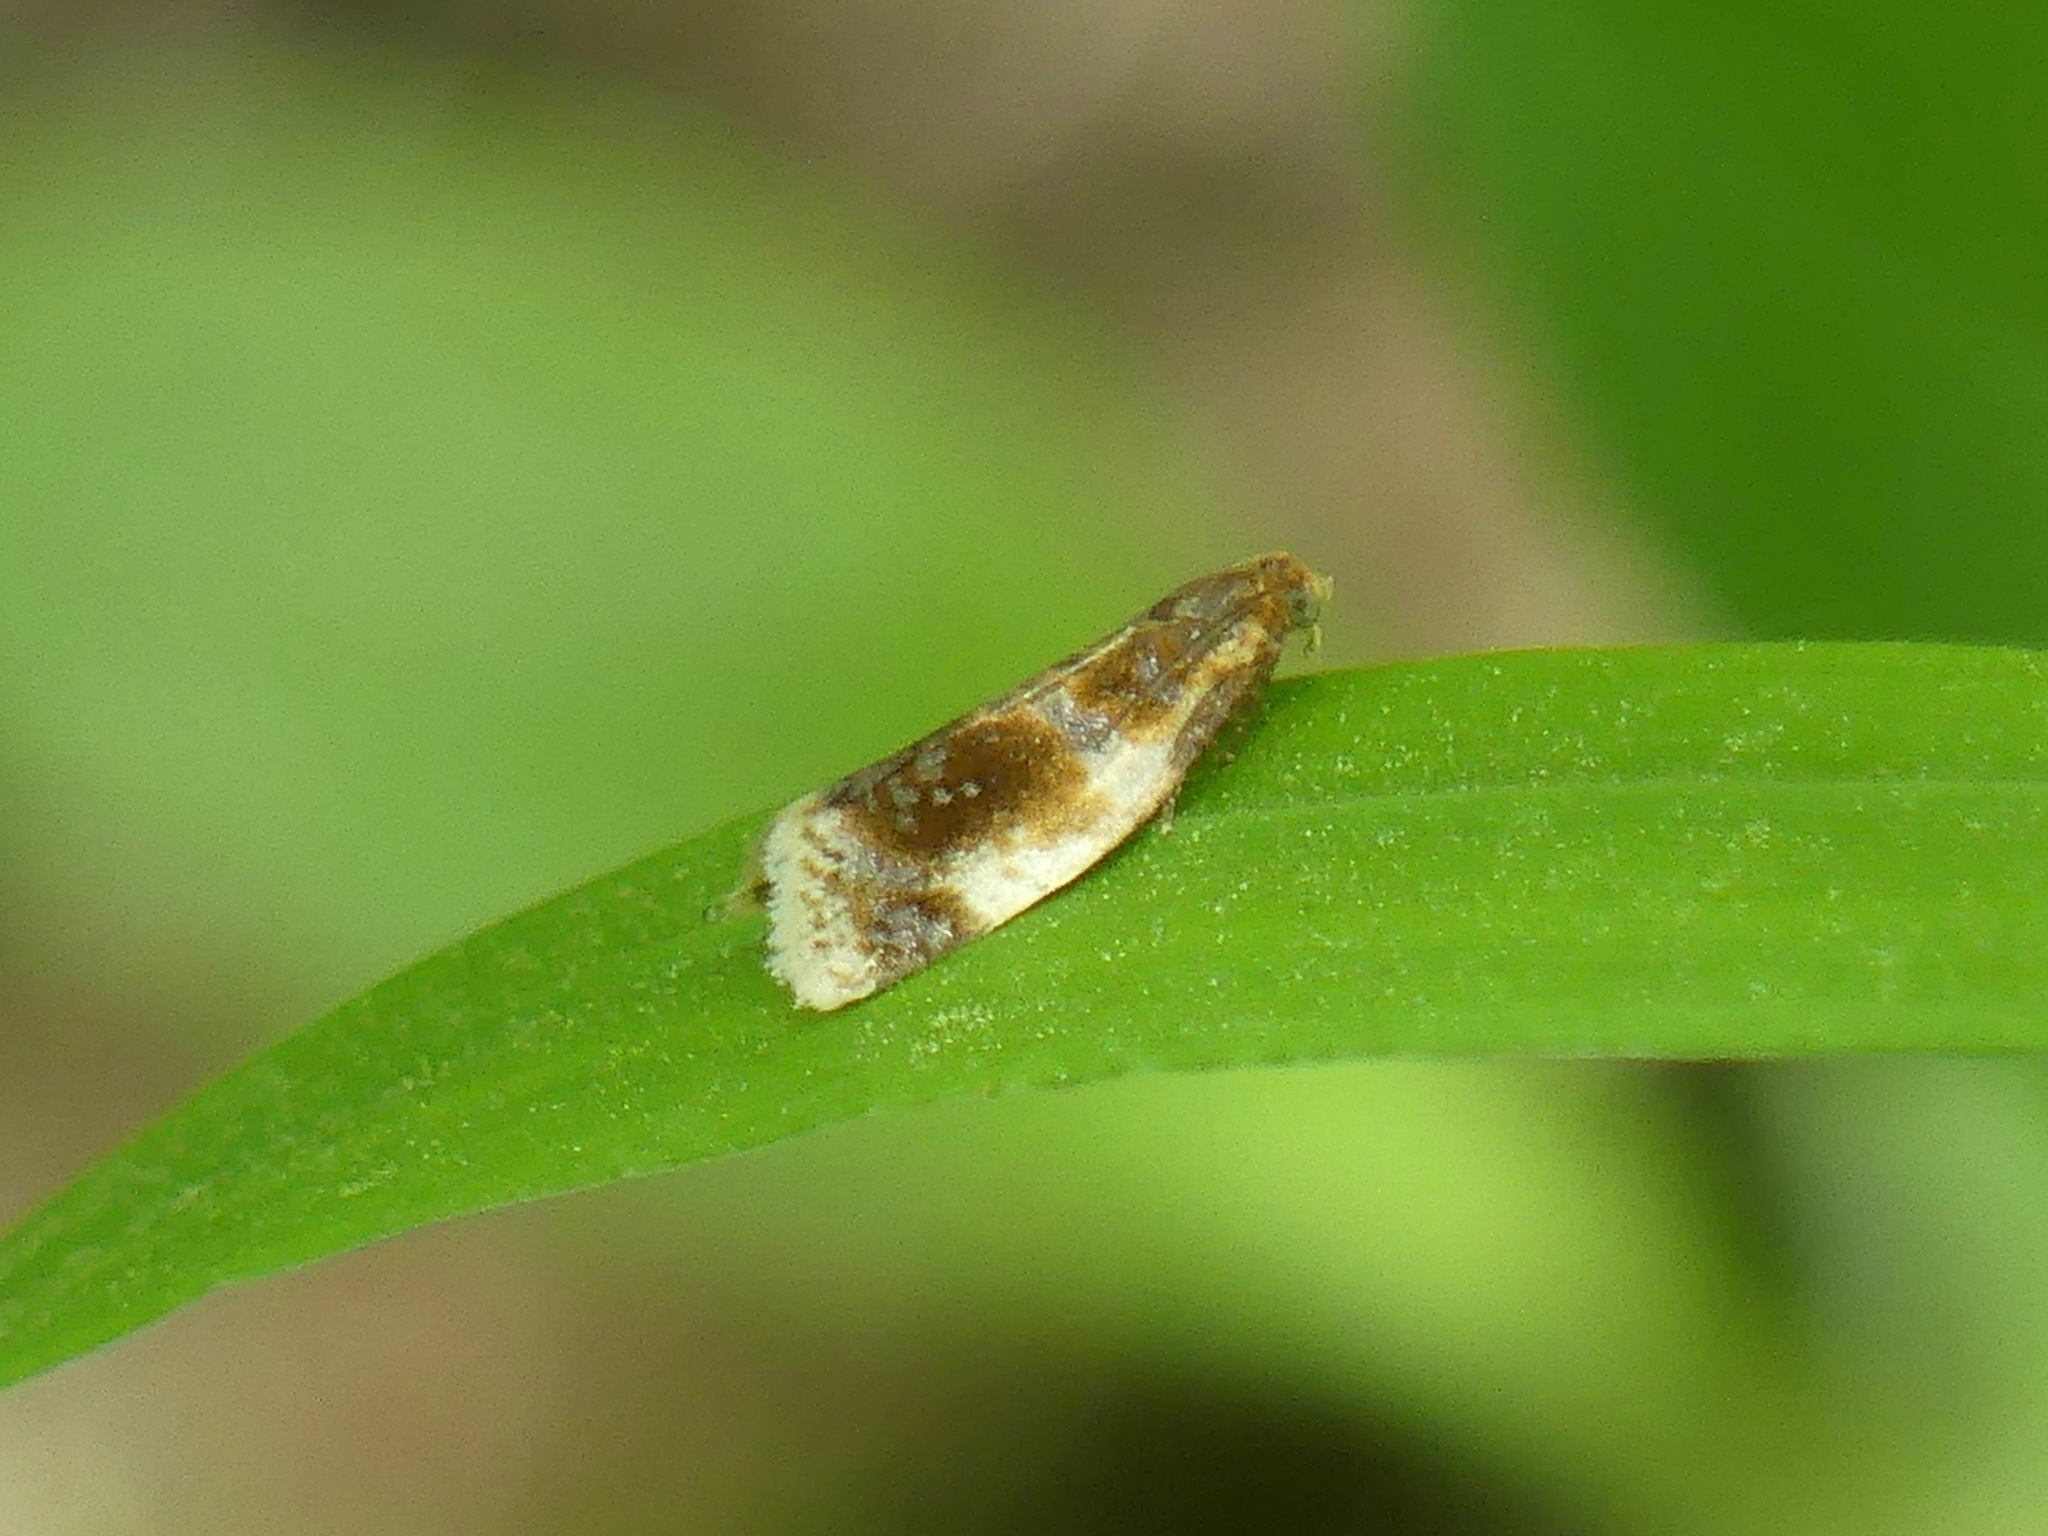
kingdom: Animalia
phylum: Arthropoda
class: Insecta
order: Lepidoptera
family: Tortricidae
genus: Clepsis
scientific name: Clepsis melaleucanus
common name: American apple tortrix
